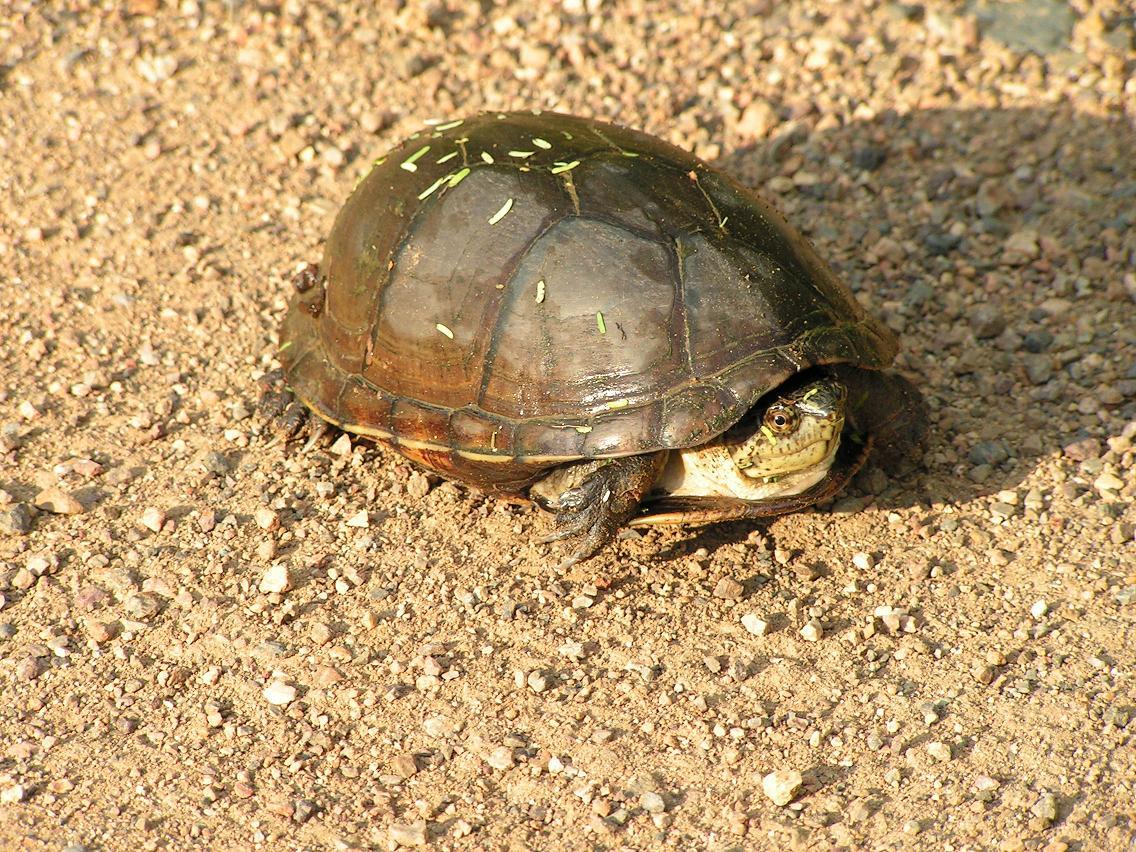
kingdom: Animalia
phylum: Chordata
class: Testudines
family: Kinosternidae
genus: Kinosternon
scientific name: Kinosternon integrum
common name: Mexican mud turtle
